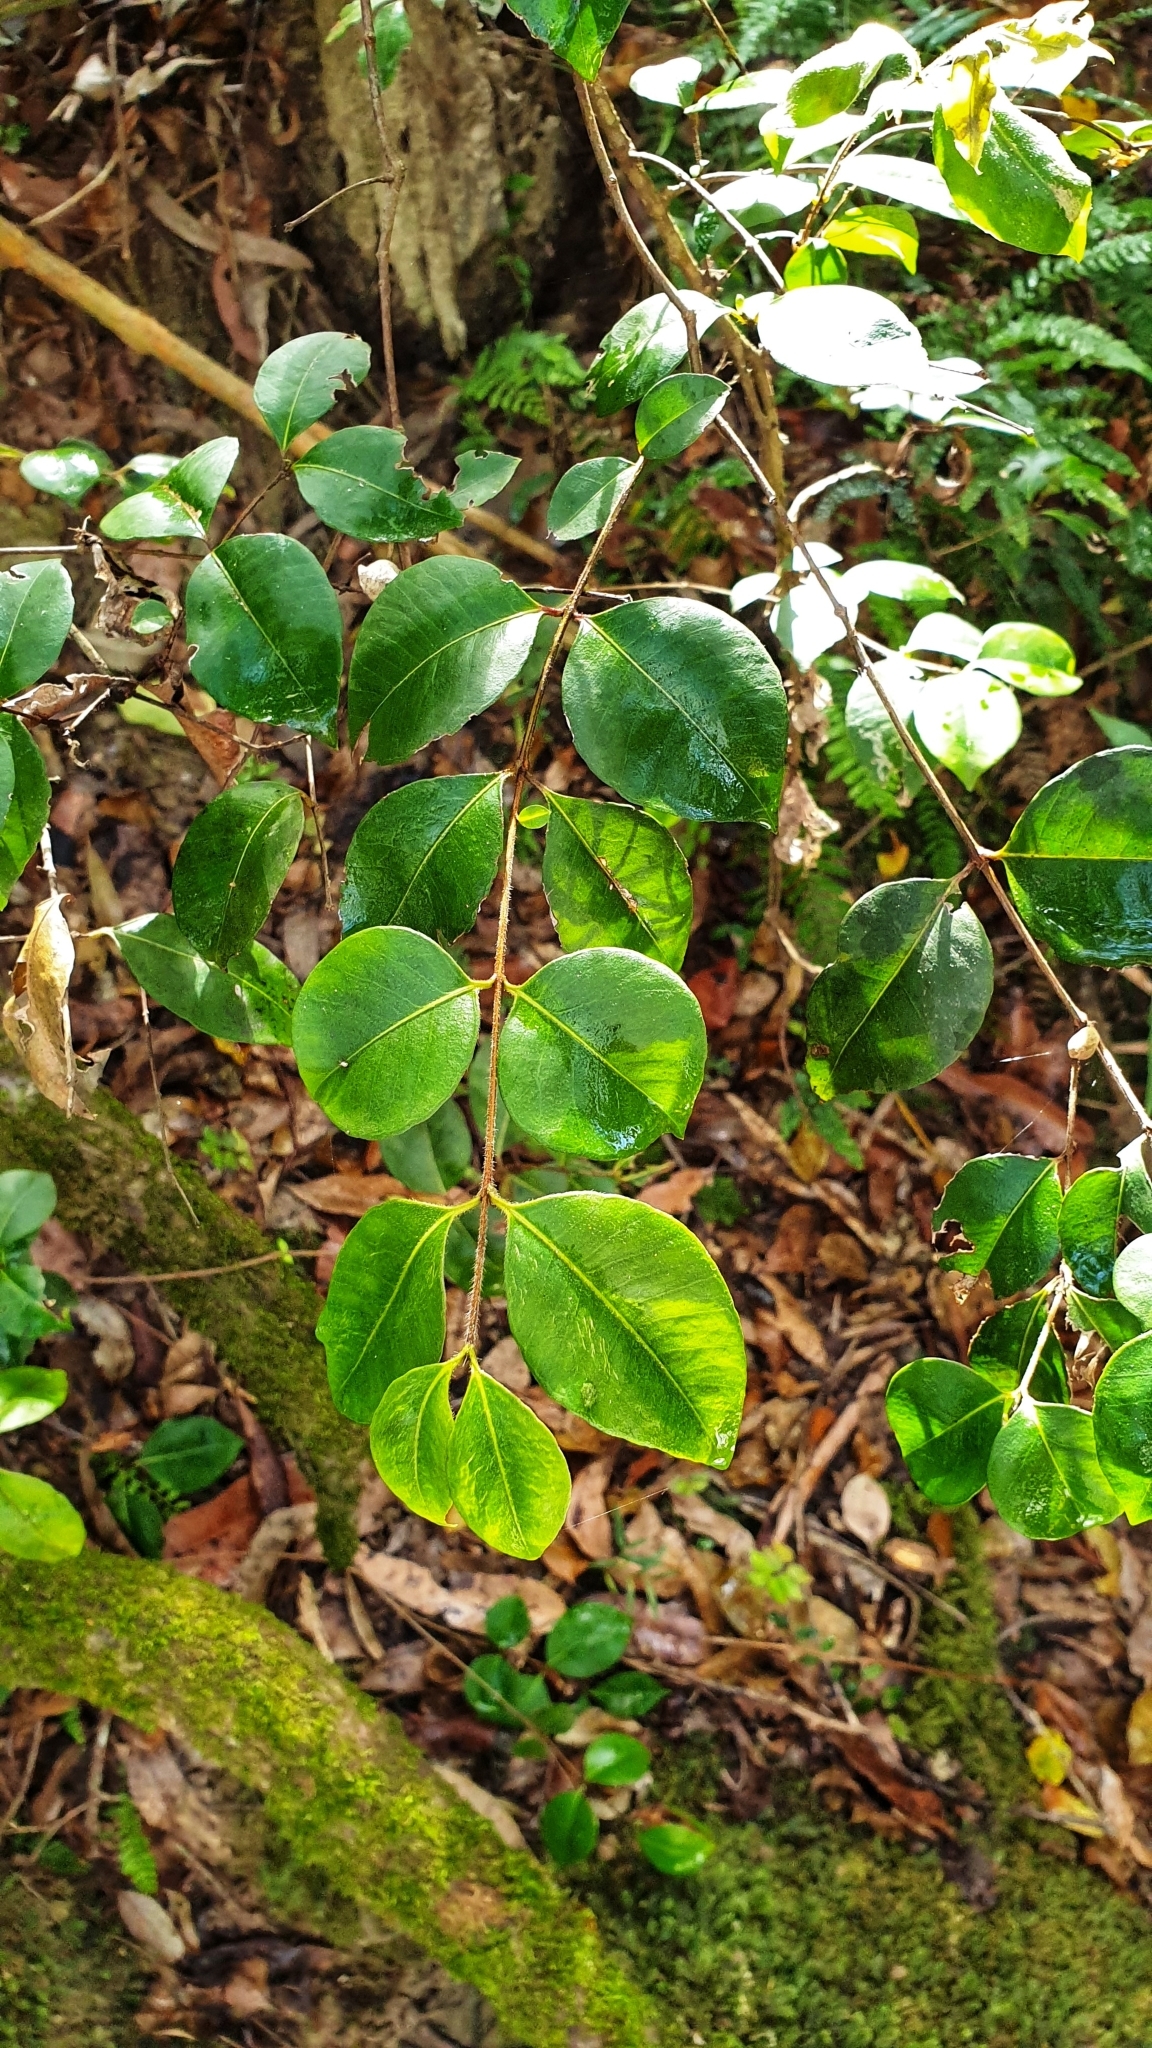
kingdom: Plantae
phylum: Tracheophyta
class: Magnoliopsida
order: Myrtales
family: Myrtaceae
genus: Backhousia
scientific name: Backhousia myrtifolia
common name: Carrol
